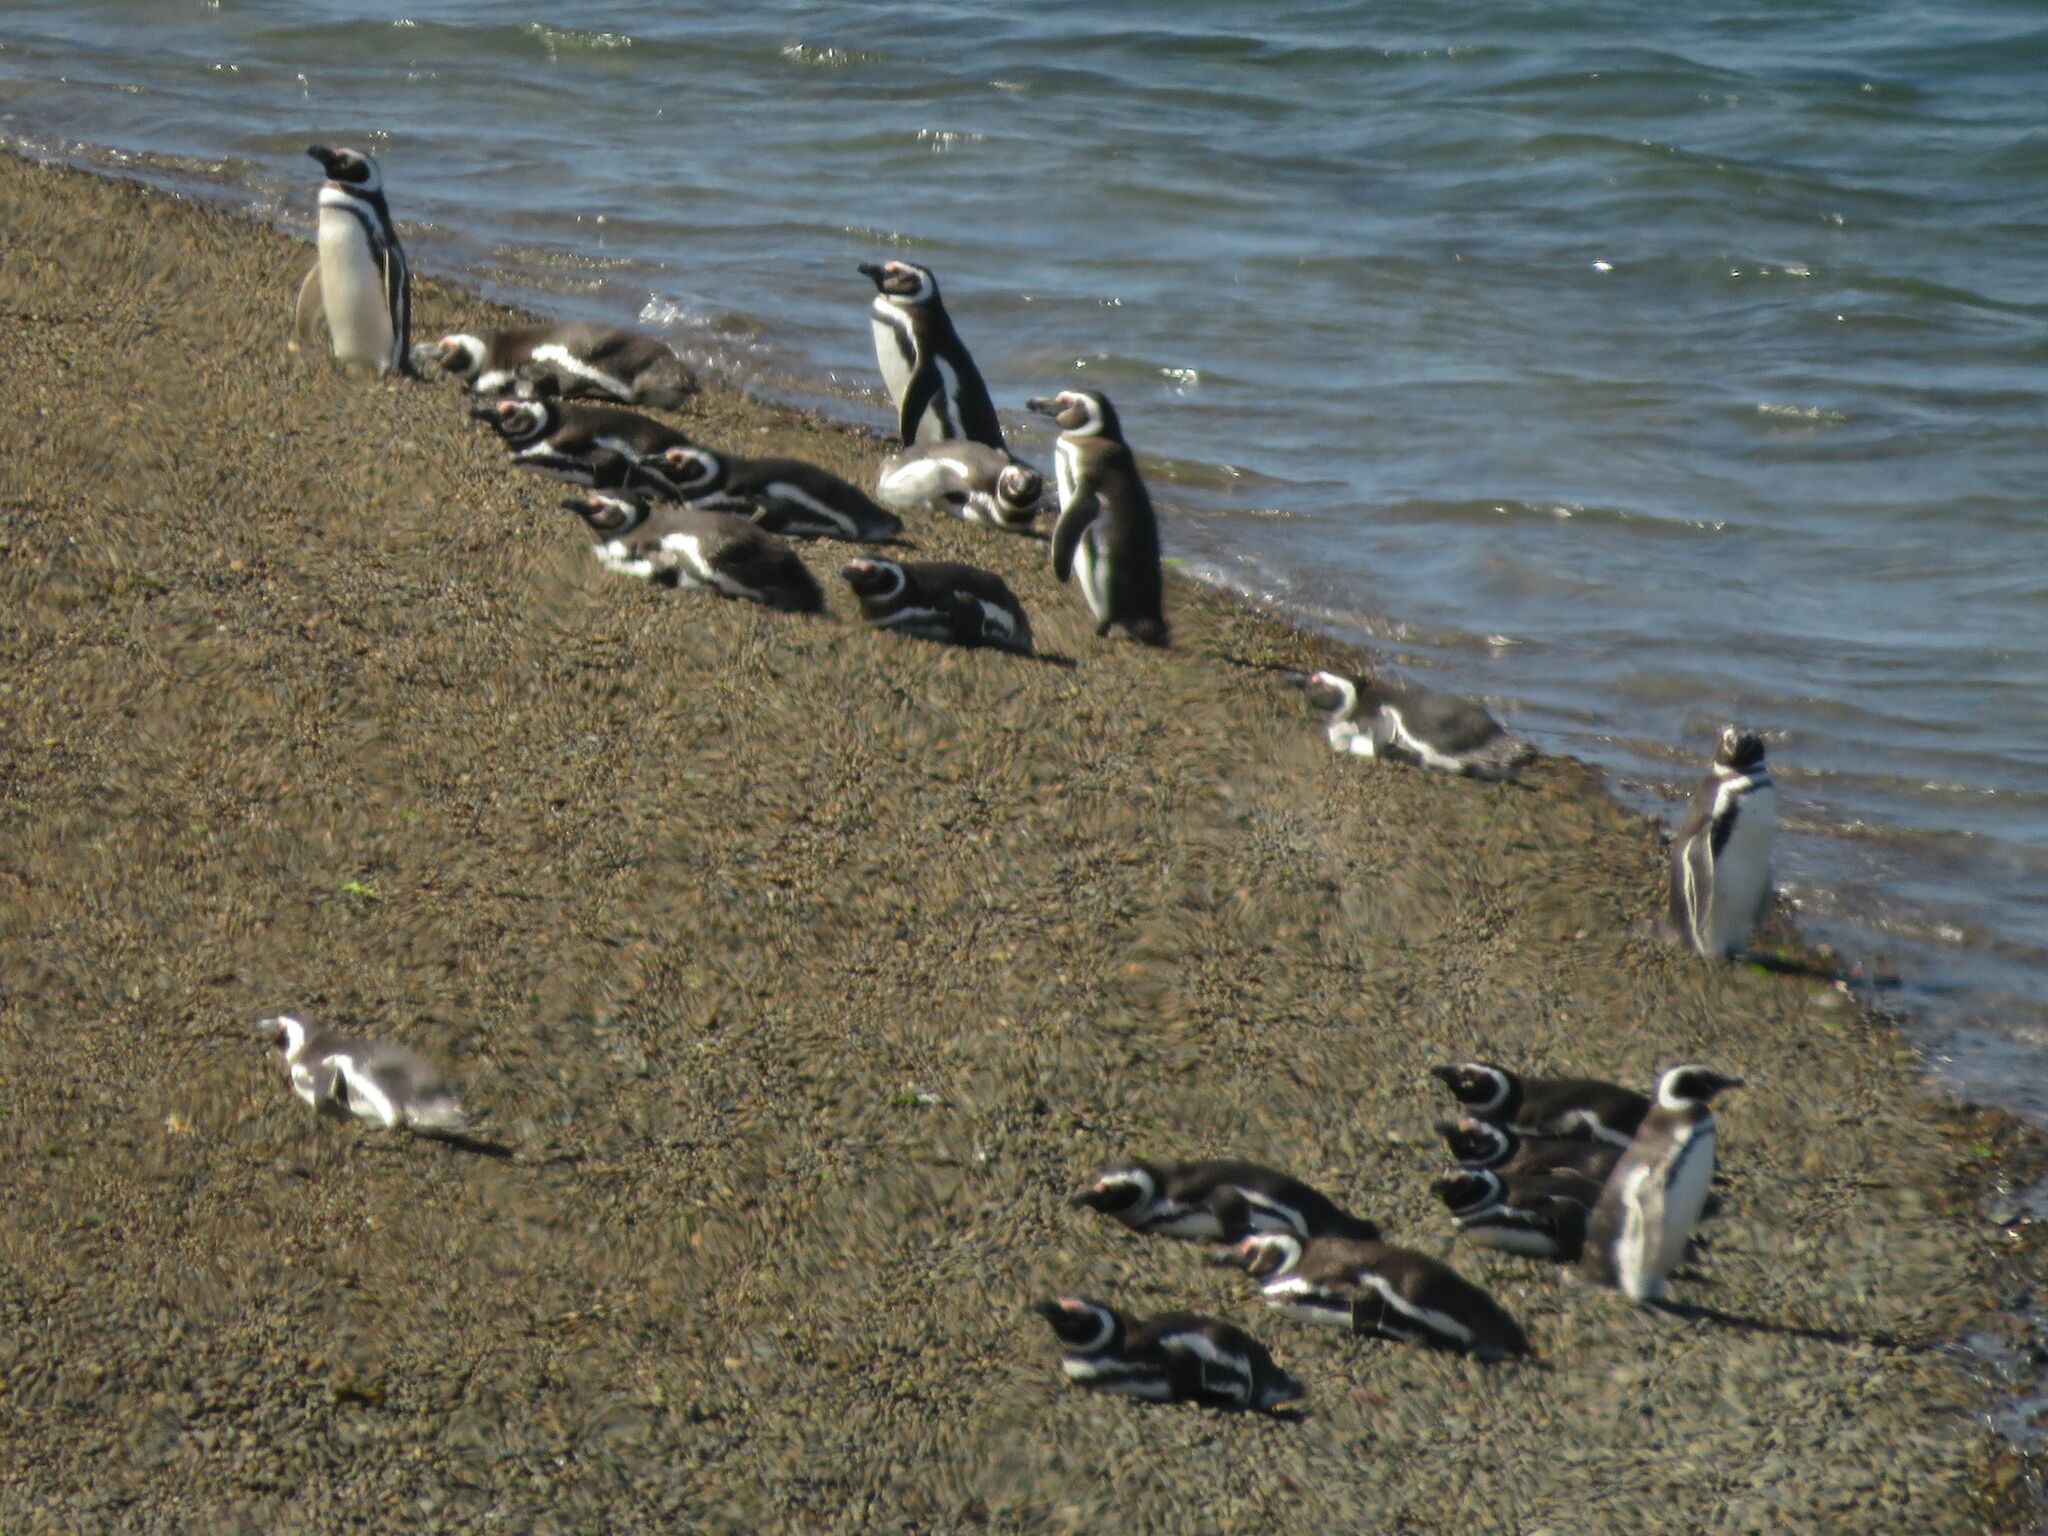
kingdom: Animalia
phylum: Chordata
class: Aves
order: Sphenisciformes
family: Spheniscidae
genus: Spheniscus
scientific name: Spheniscus magellanicus
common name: Magellanic penguin
